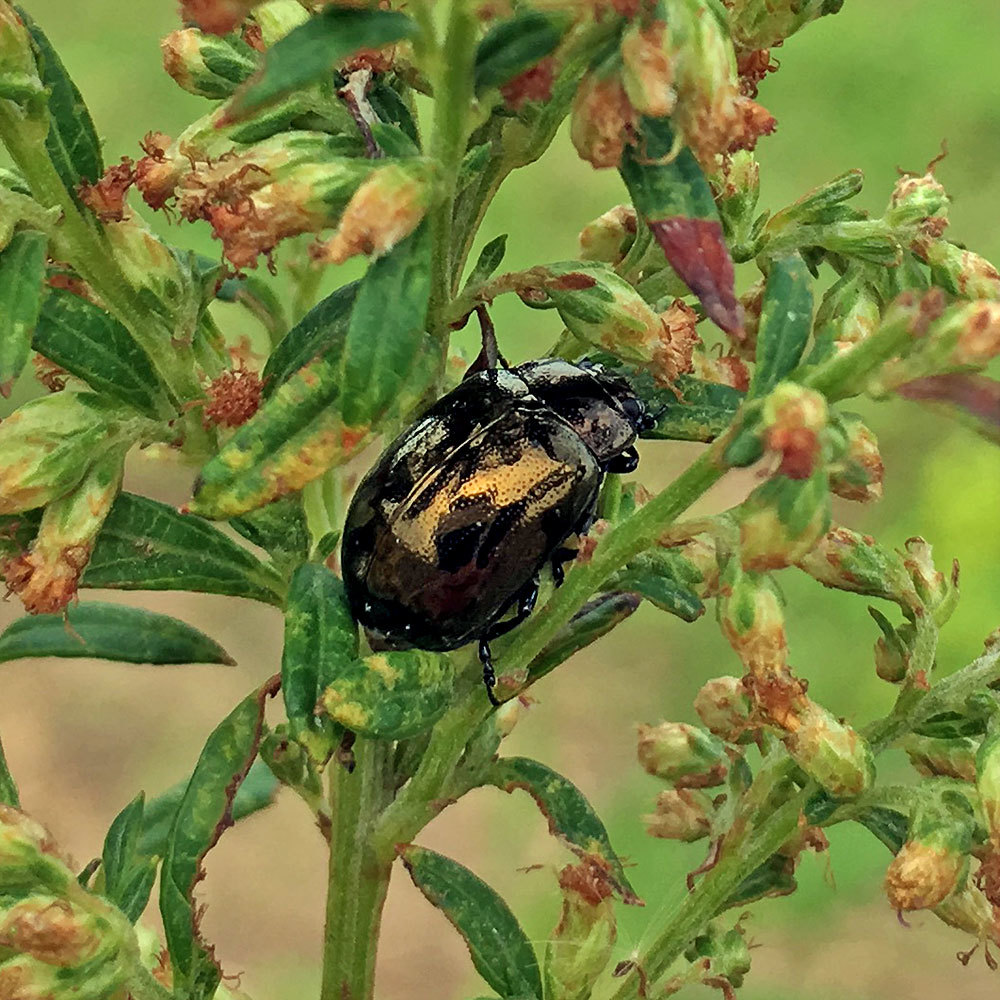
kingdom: Animalia
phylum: Arthropoda
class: Insecta
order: Coleoptera
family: Chrysomelidae
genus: Chrysolina
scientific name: Chrysolina aurichalcea
